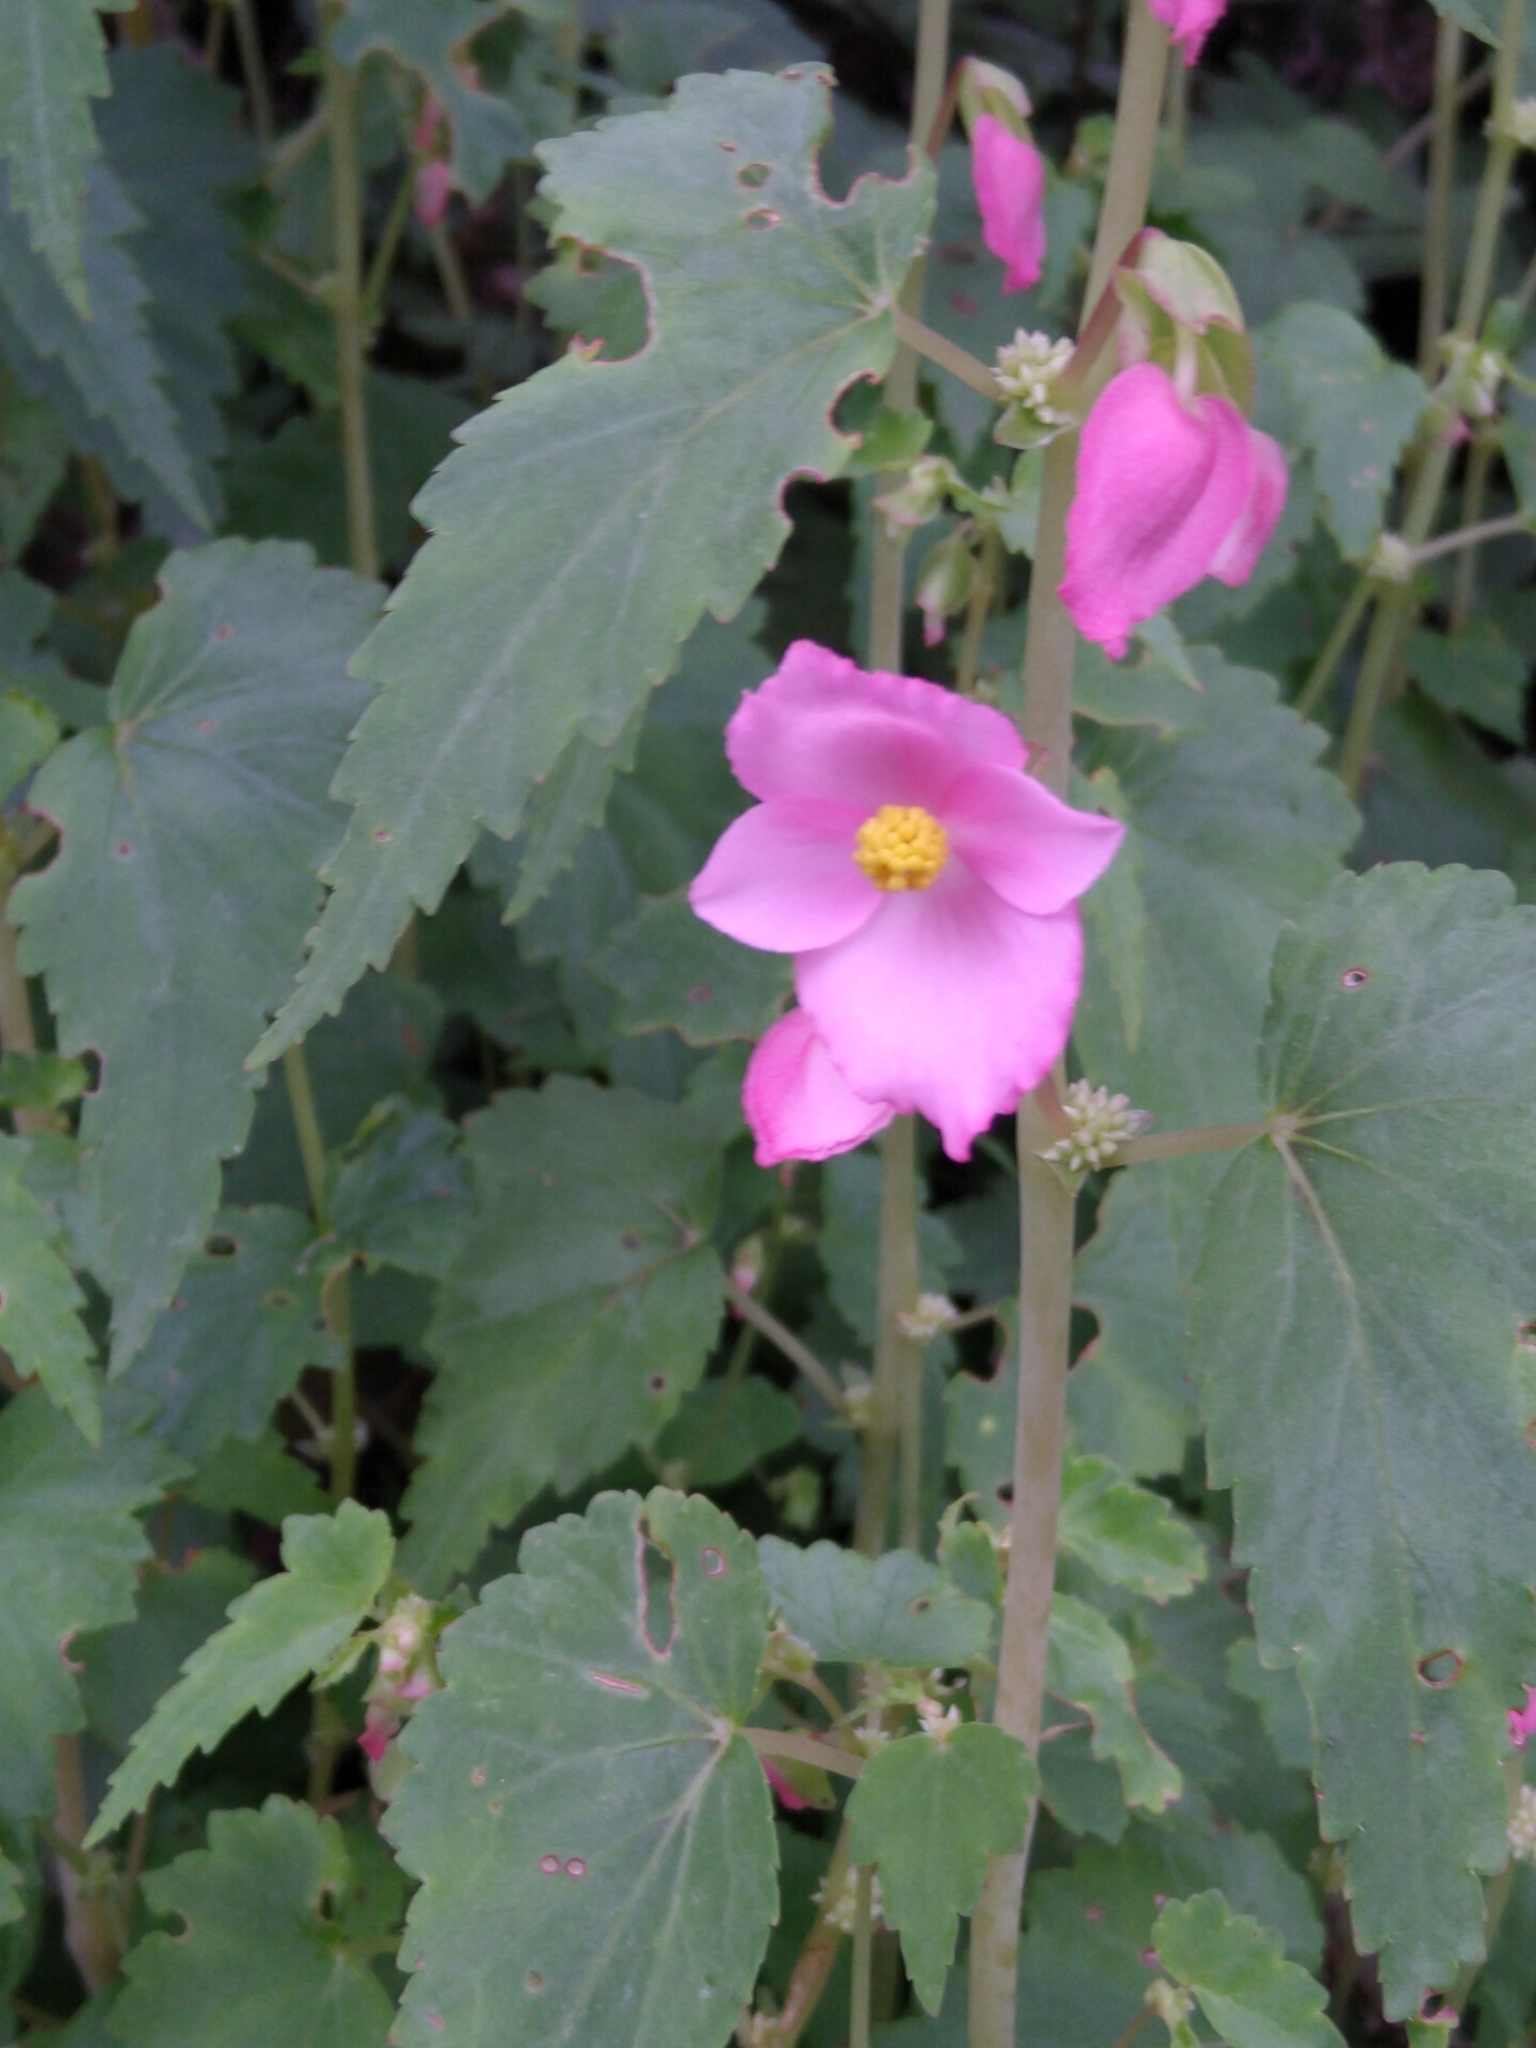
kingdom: Plantae
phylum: Tracheophyta
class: Magnoliopsida
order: Cucurbitales
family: Begoniaceae
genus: Begonia
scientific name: Begonia gracilis
